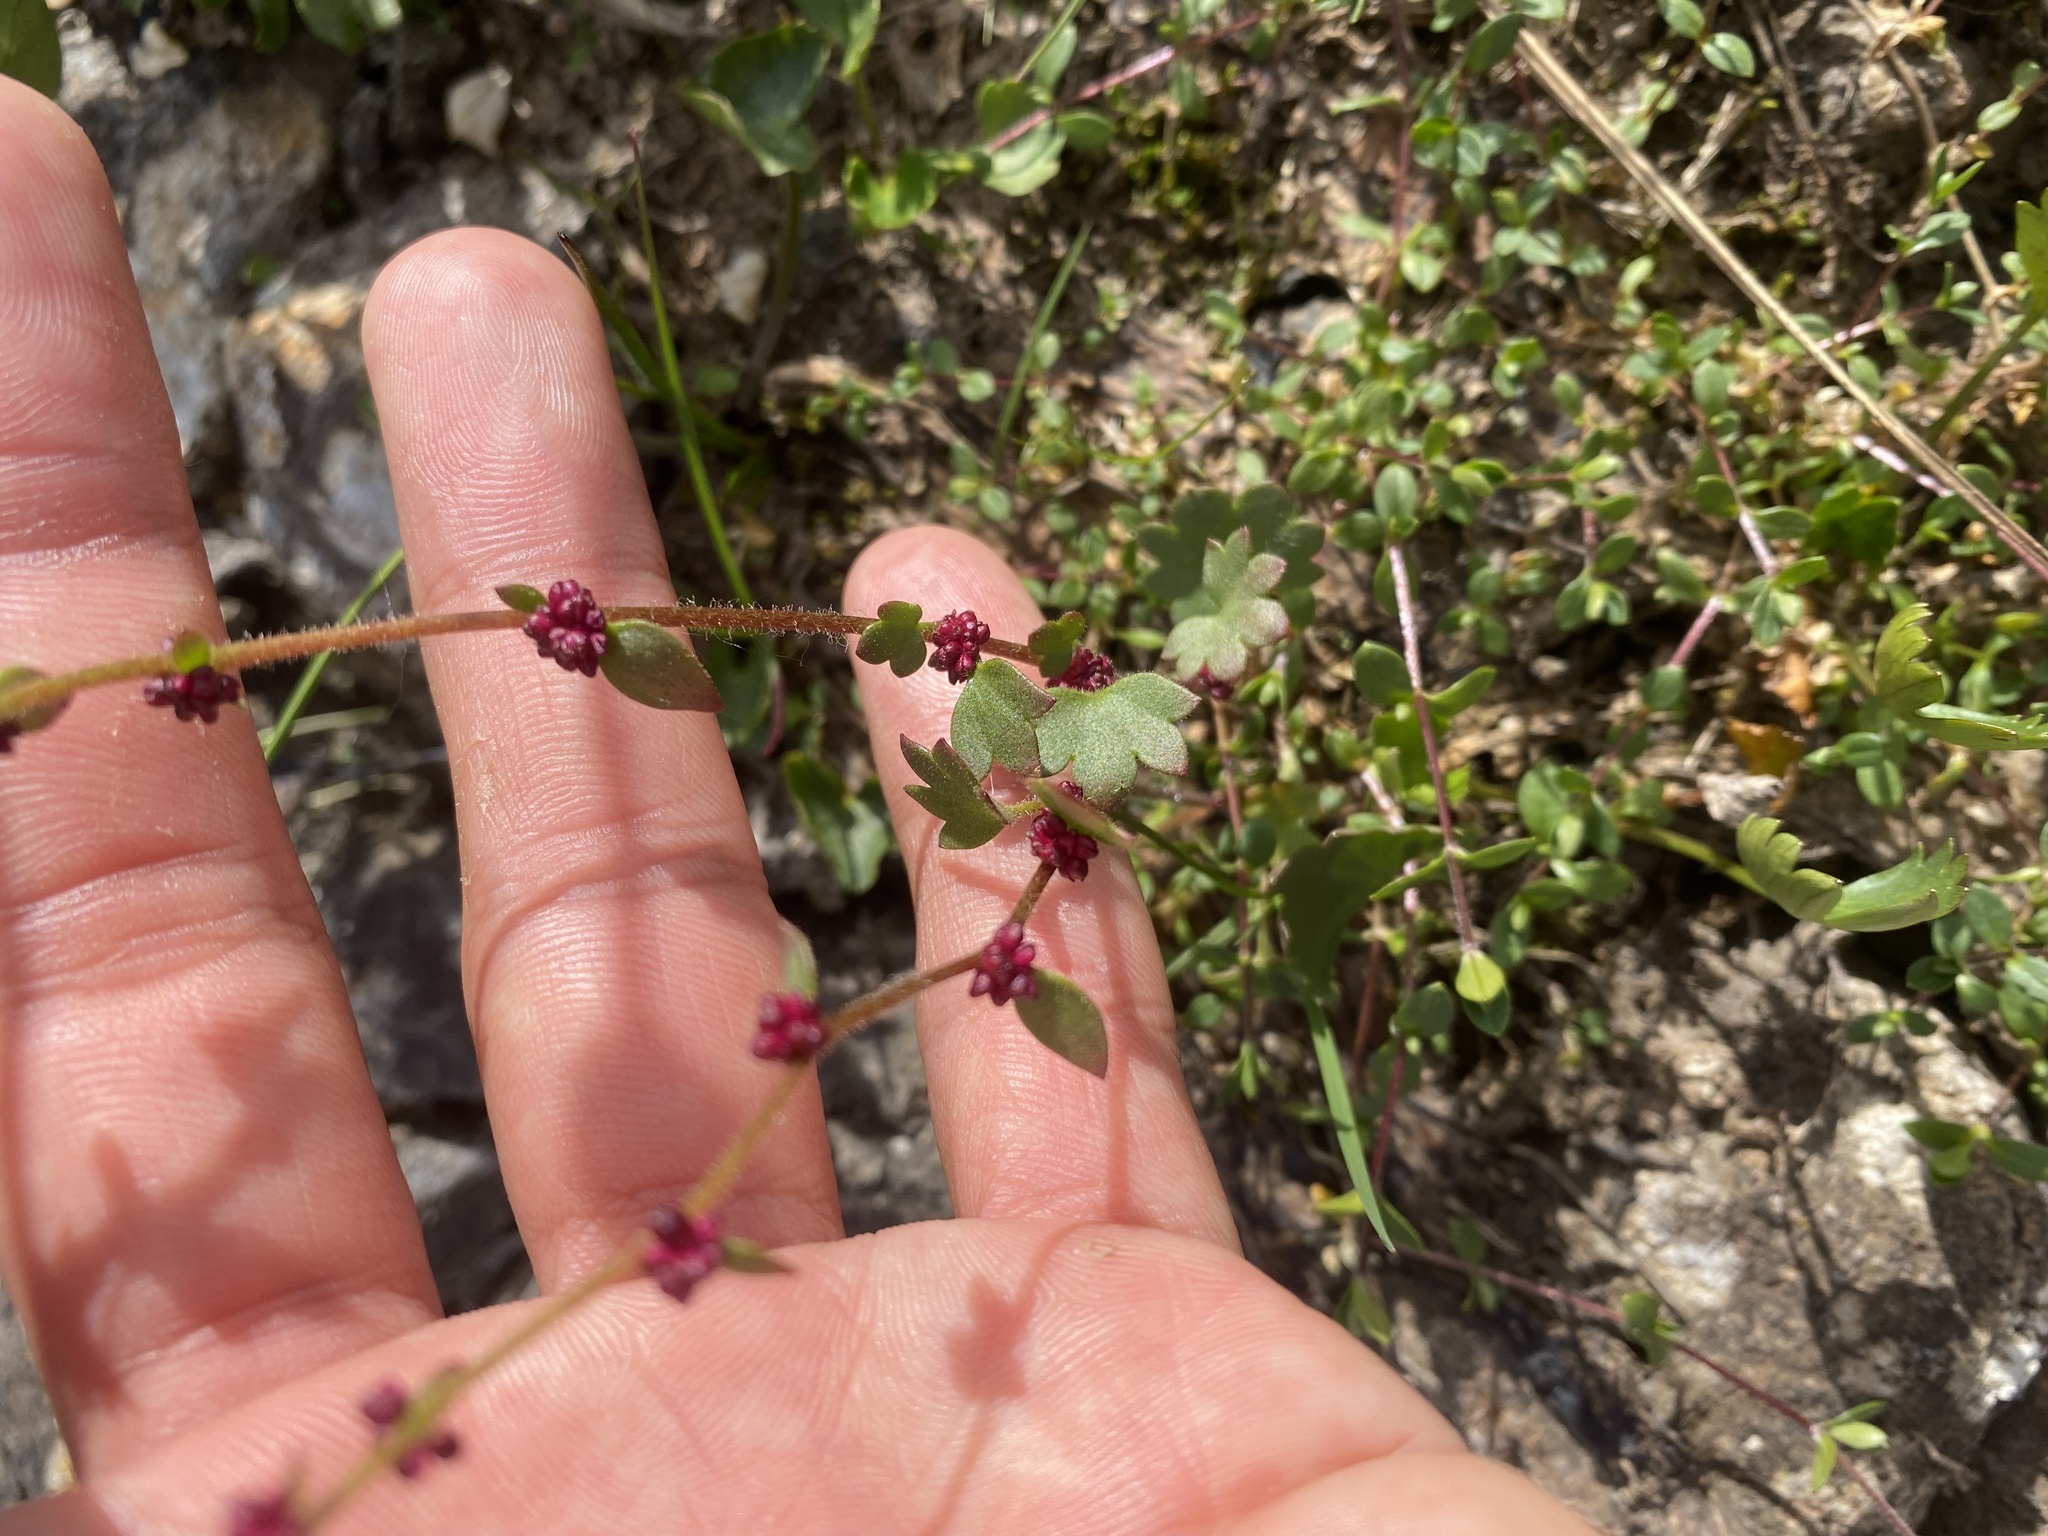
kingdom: Plantae
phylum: Tracheophyta
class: Magnoliopsida
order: Saxifragales
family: Saxifragaceae
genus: Saxifraga
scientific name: Saxifraga cernua
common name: Drooping saxifrage
